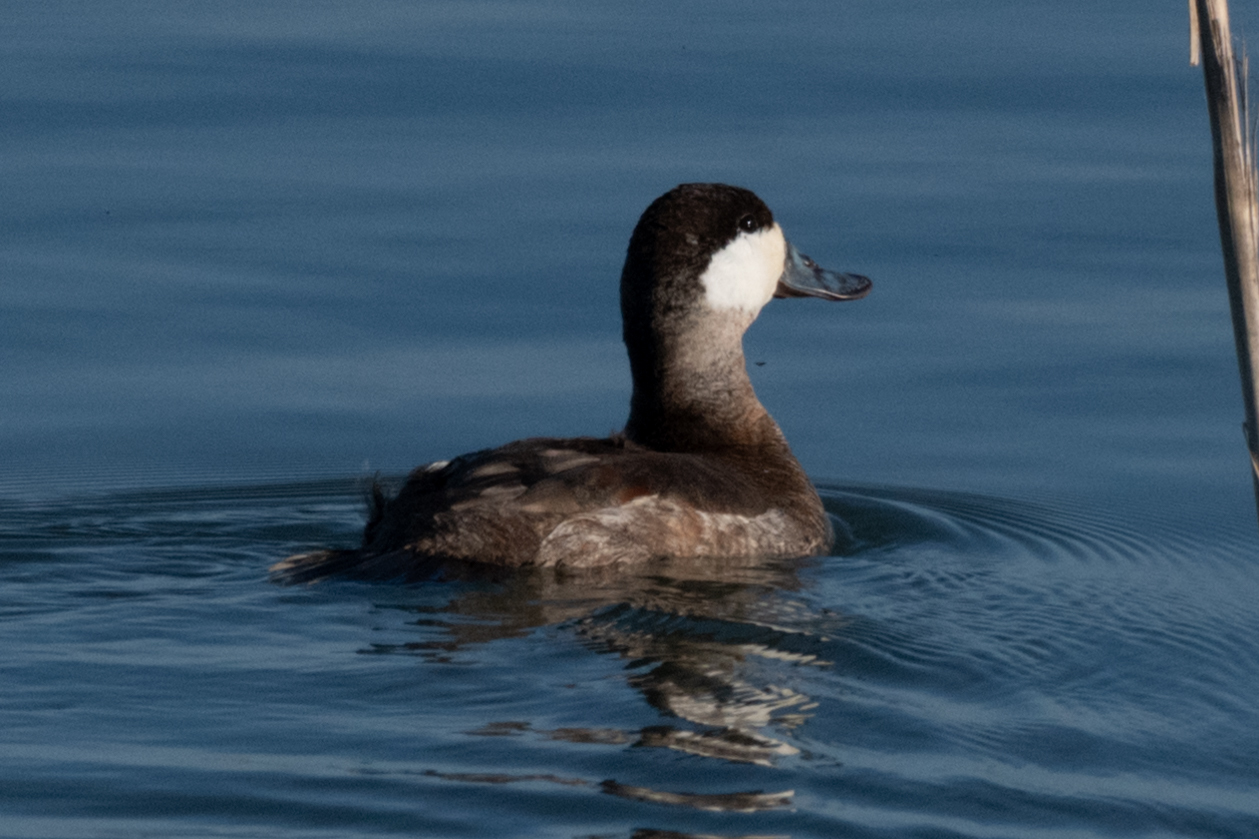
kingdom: Animalia
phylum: Chordata
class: Aves
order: Anseriformes
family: Anatidae
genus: Oxyura
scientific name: Oxyura jamaicensis
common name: Ruddy duck
